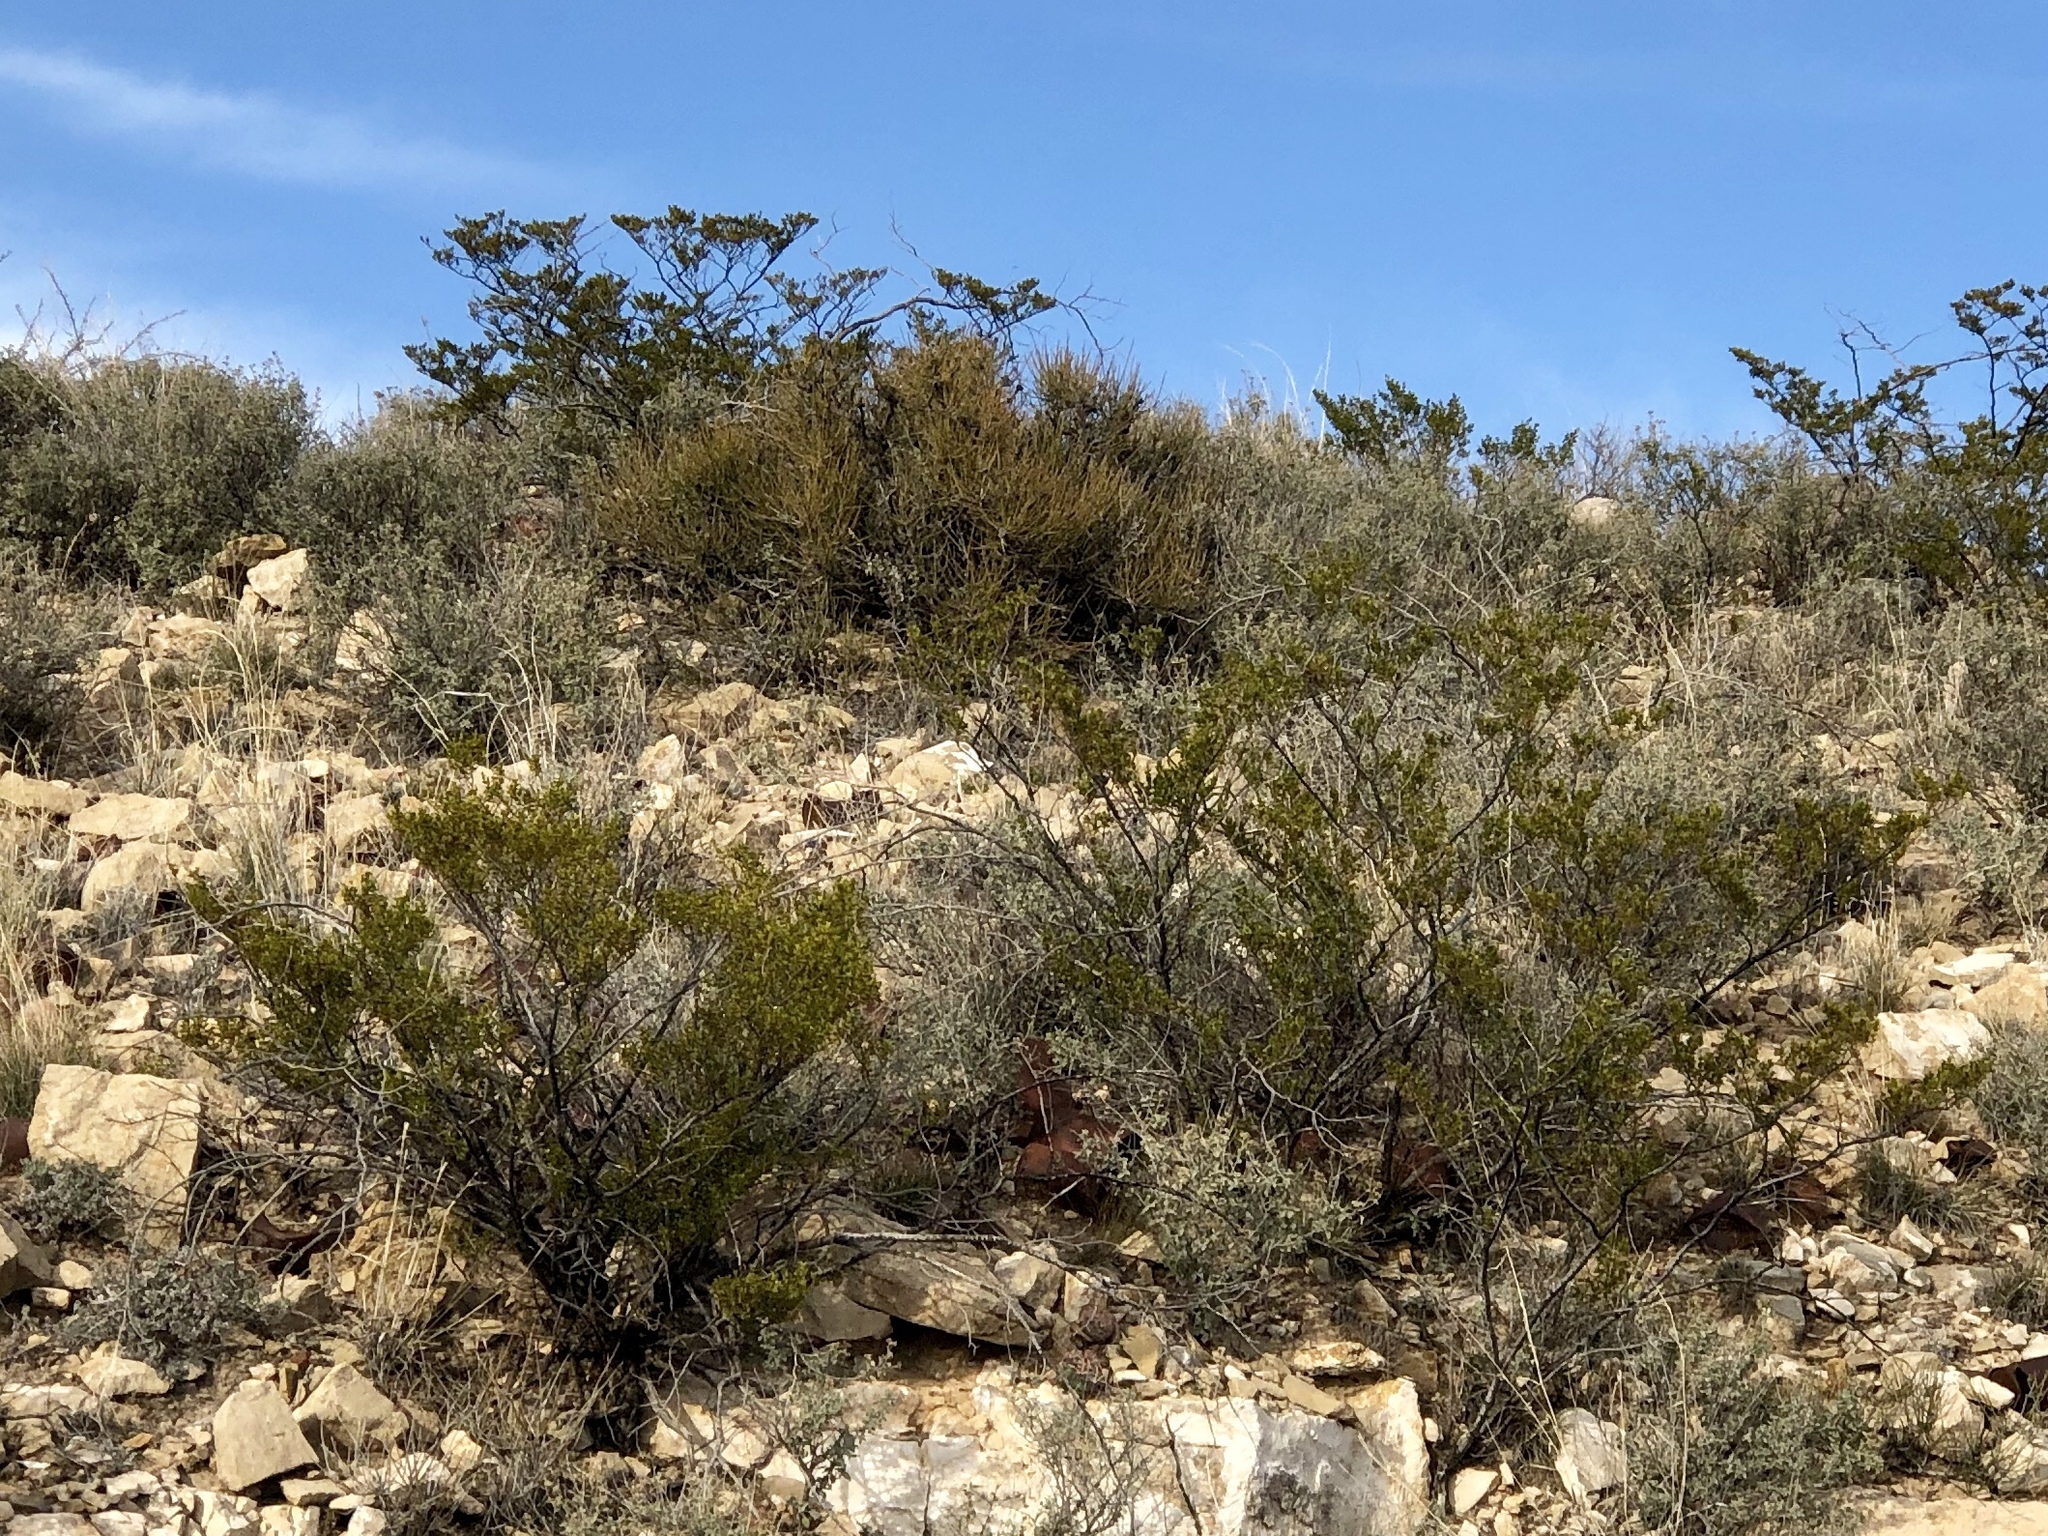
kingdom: Plantae
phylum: Tracheophyta
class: Magnoliopsida
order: Zygophyllales
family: Zygophyllaceae
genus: Larrea
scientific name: Larrea tridentata
